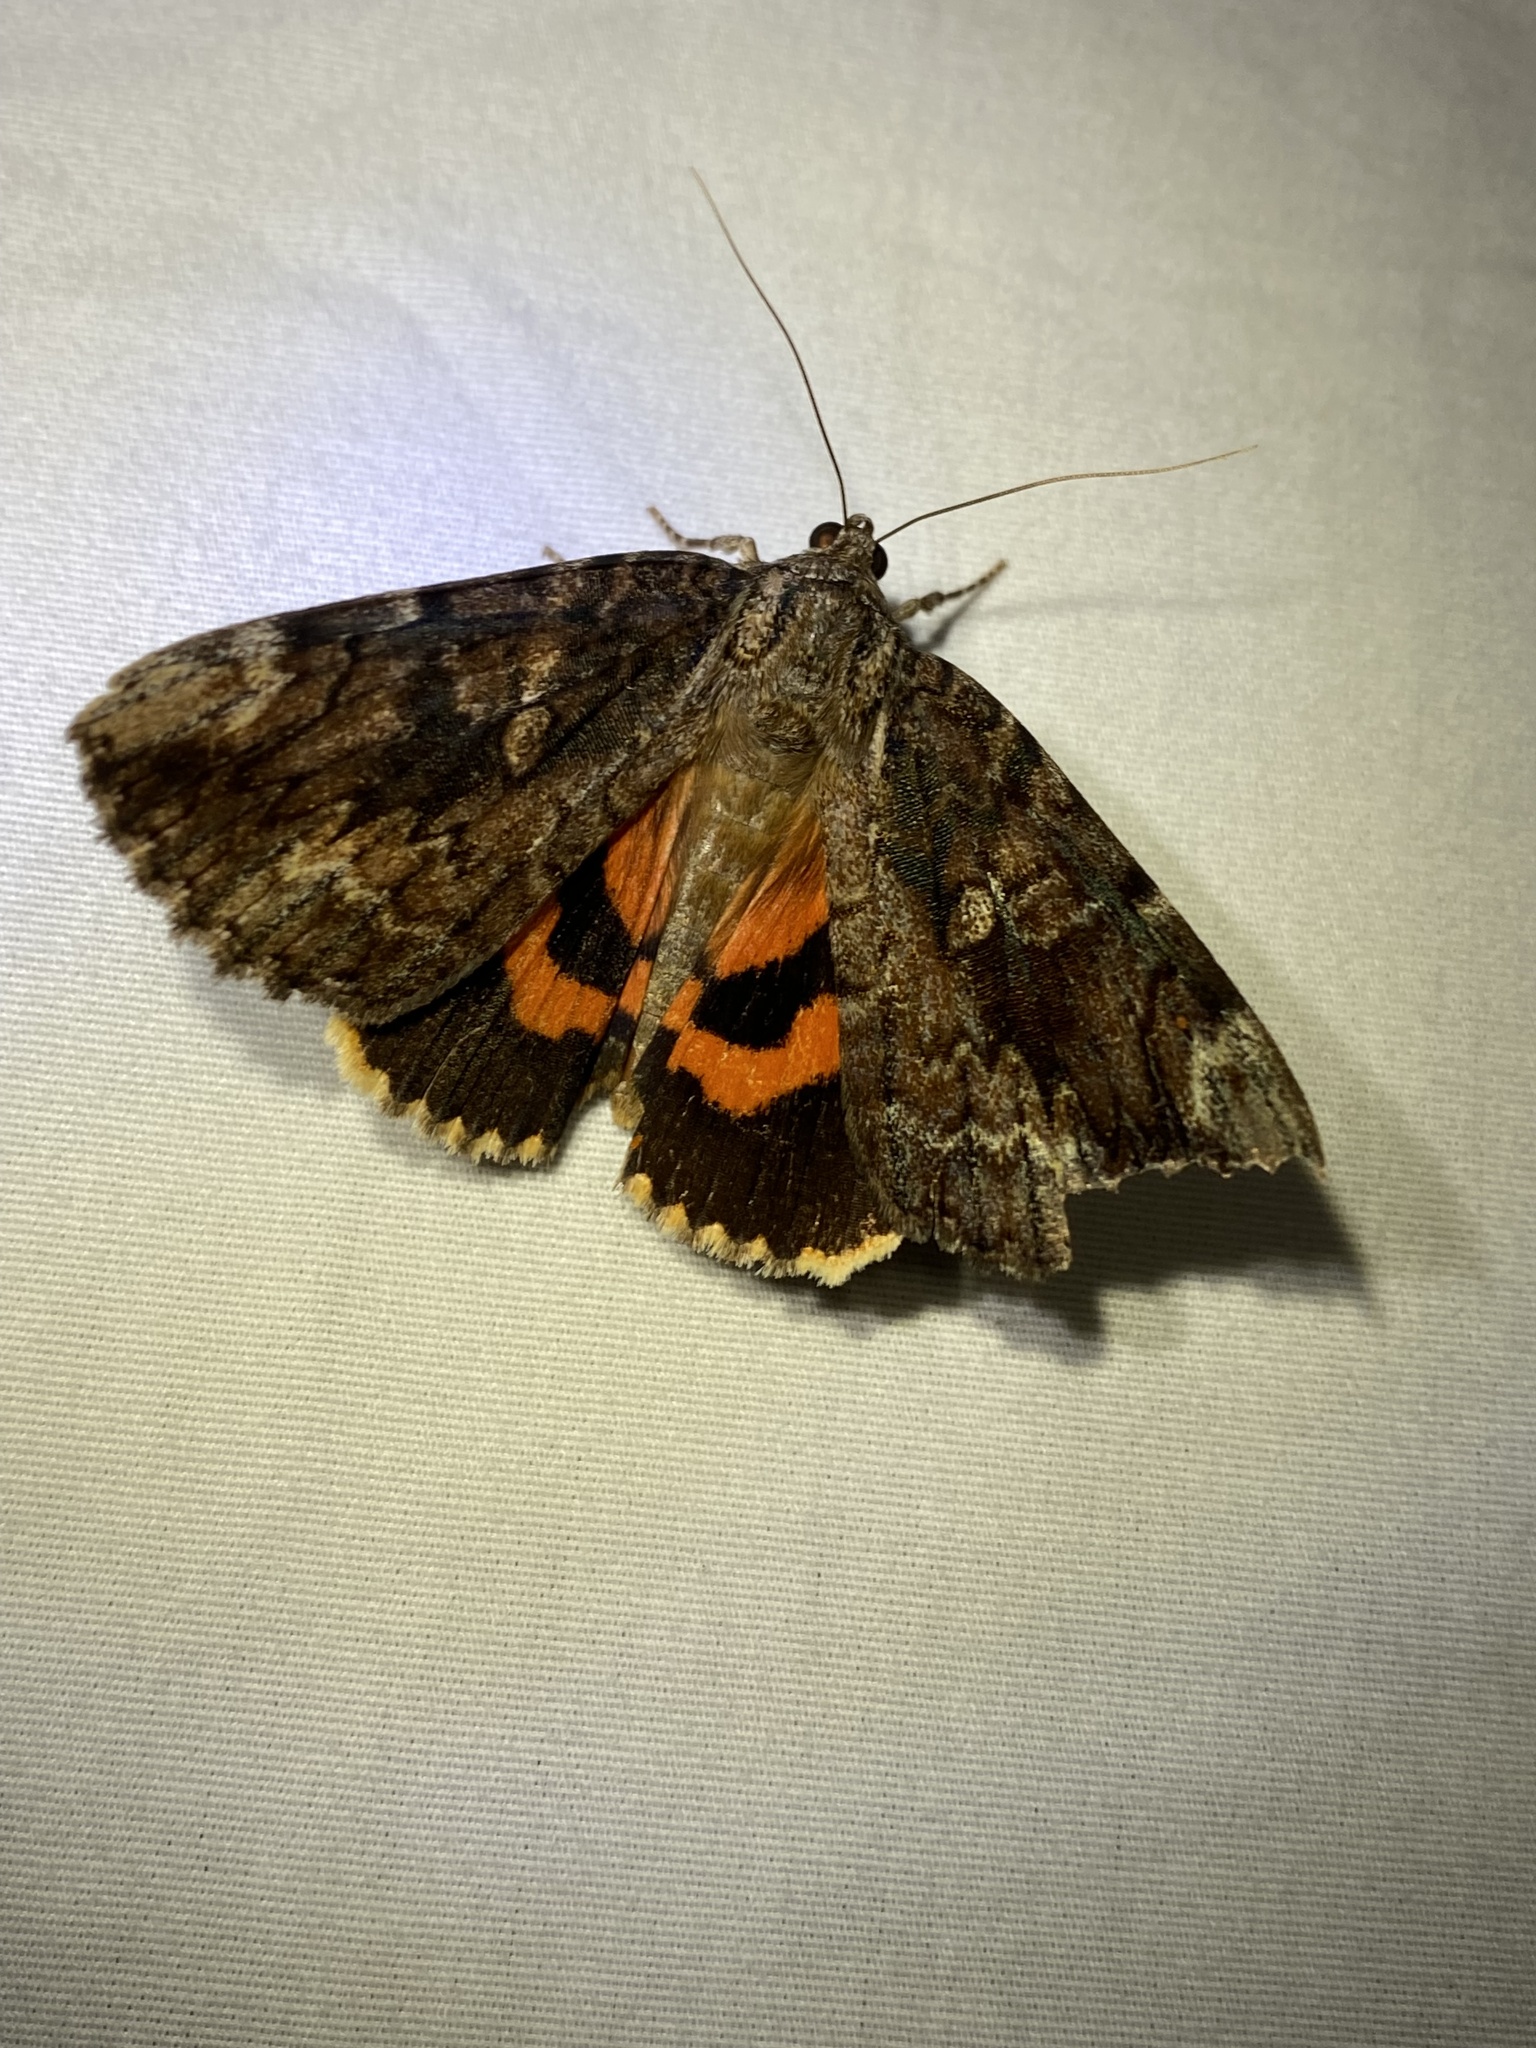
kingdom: Animalia
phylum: Arthropoda
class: Insecta
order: Lepidoptera
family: Erebidae
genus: Catocala
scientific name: Catocala innubens
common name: Betrothed underwing
